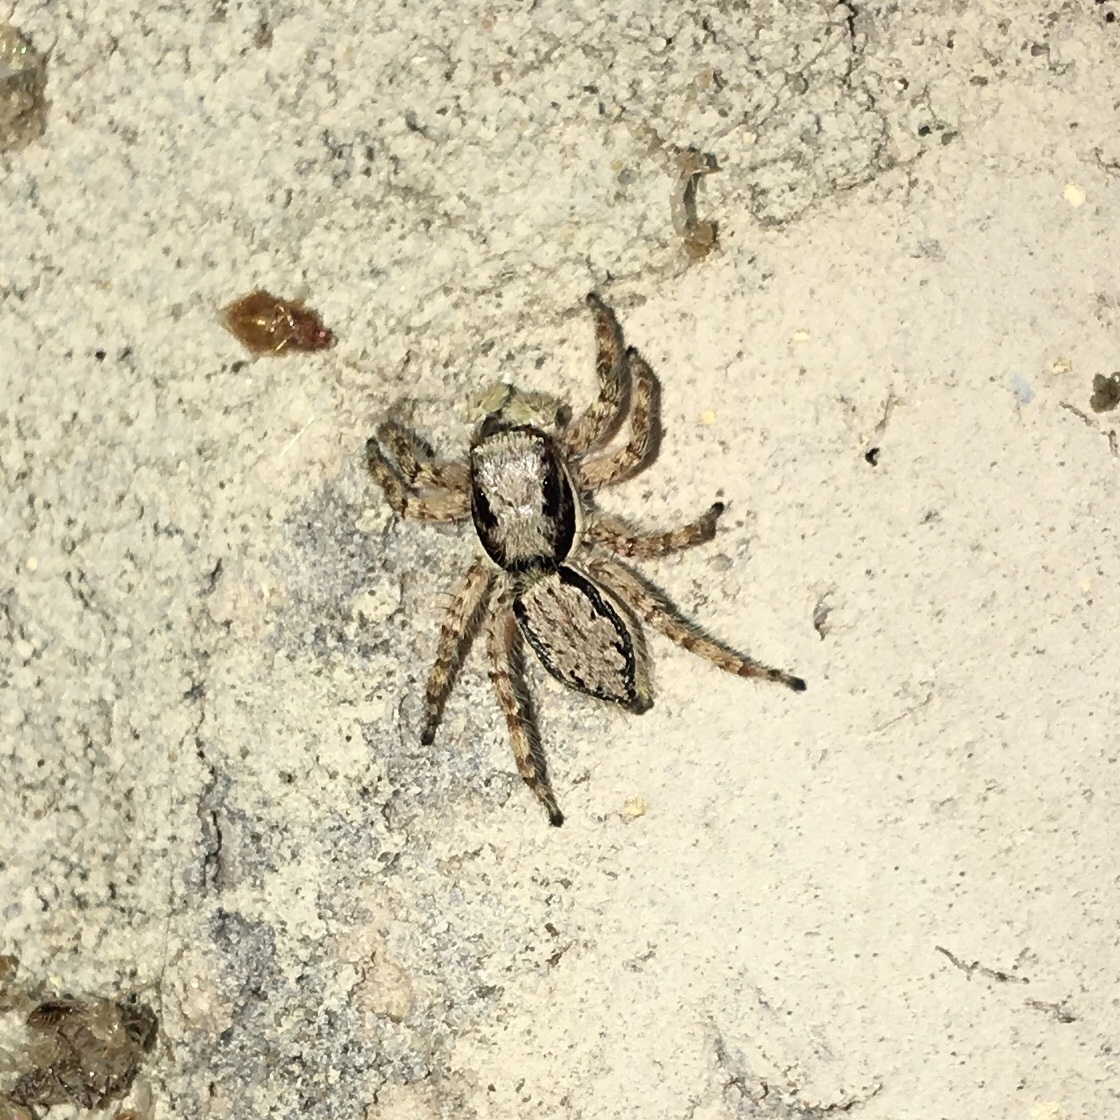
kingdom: Animalia
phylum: Arthropoda
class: Arachnida
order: Araneae
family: Salticidae
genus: Menemerus
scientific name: Menemerus bivittatus
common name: Gray wall jumper
